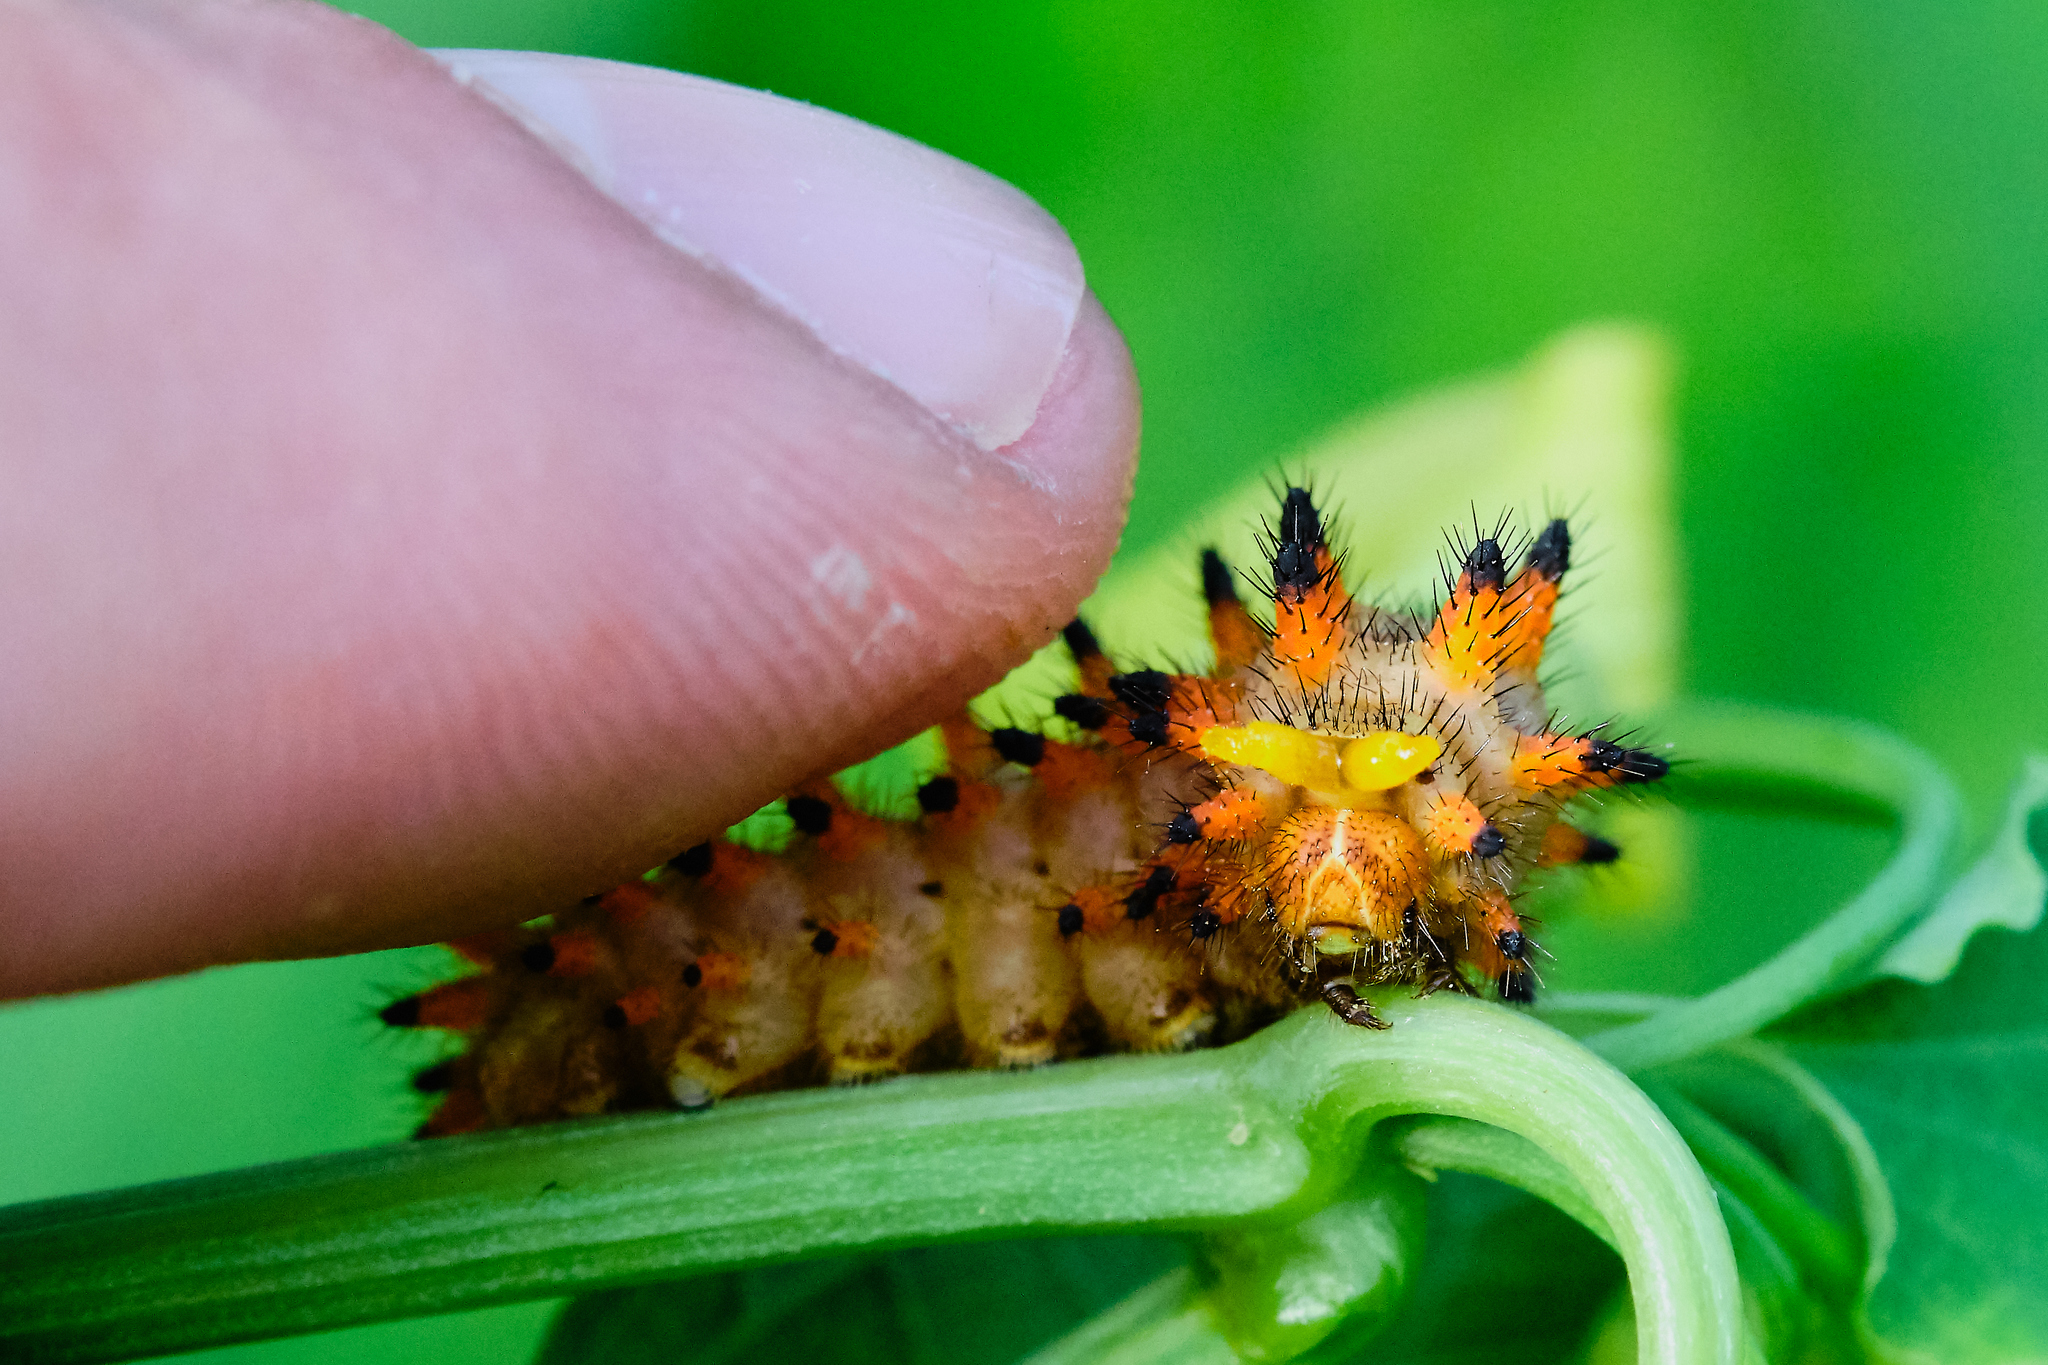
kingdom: Animalia
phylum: Arthropoda
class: Insecta
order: Lepidoptera
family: Papilionidae
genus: Zerynthia
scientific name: Zerynthia polyxena
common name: Southern festoon
